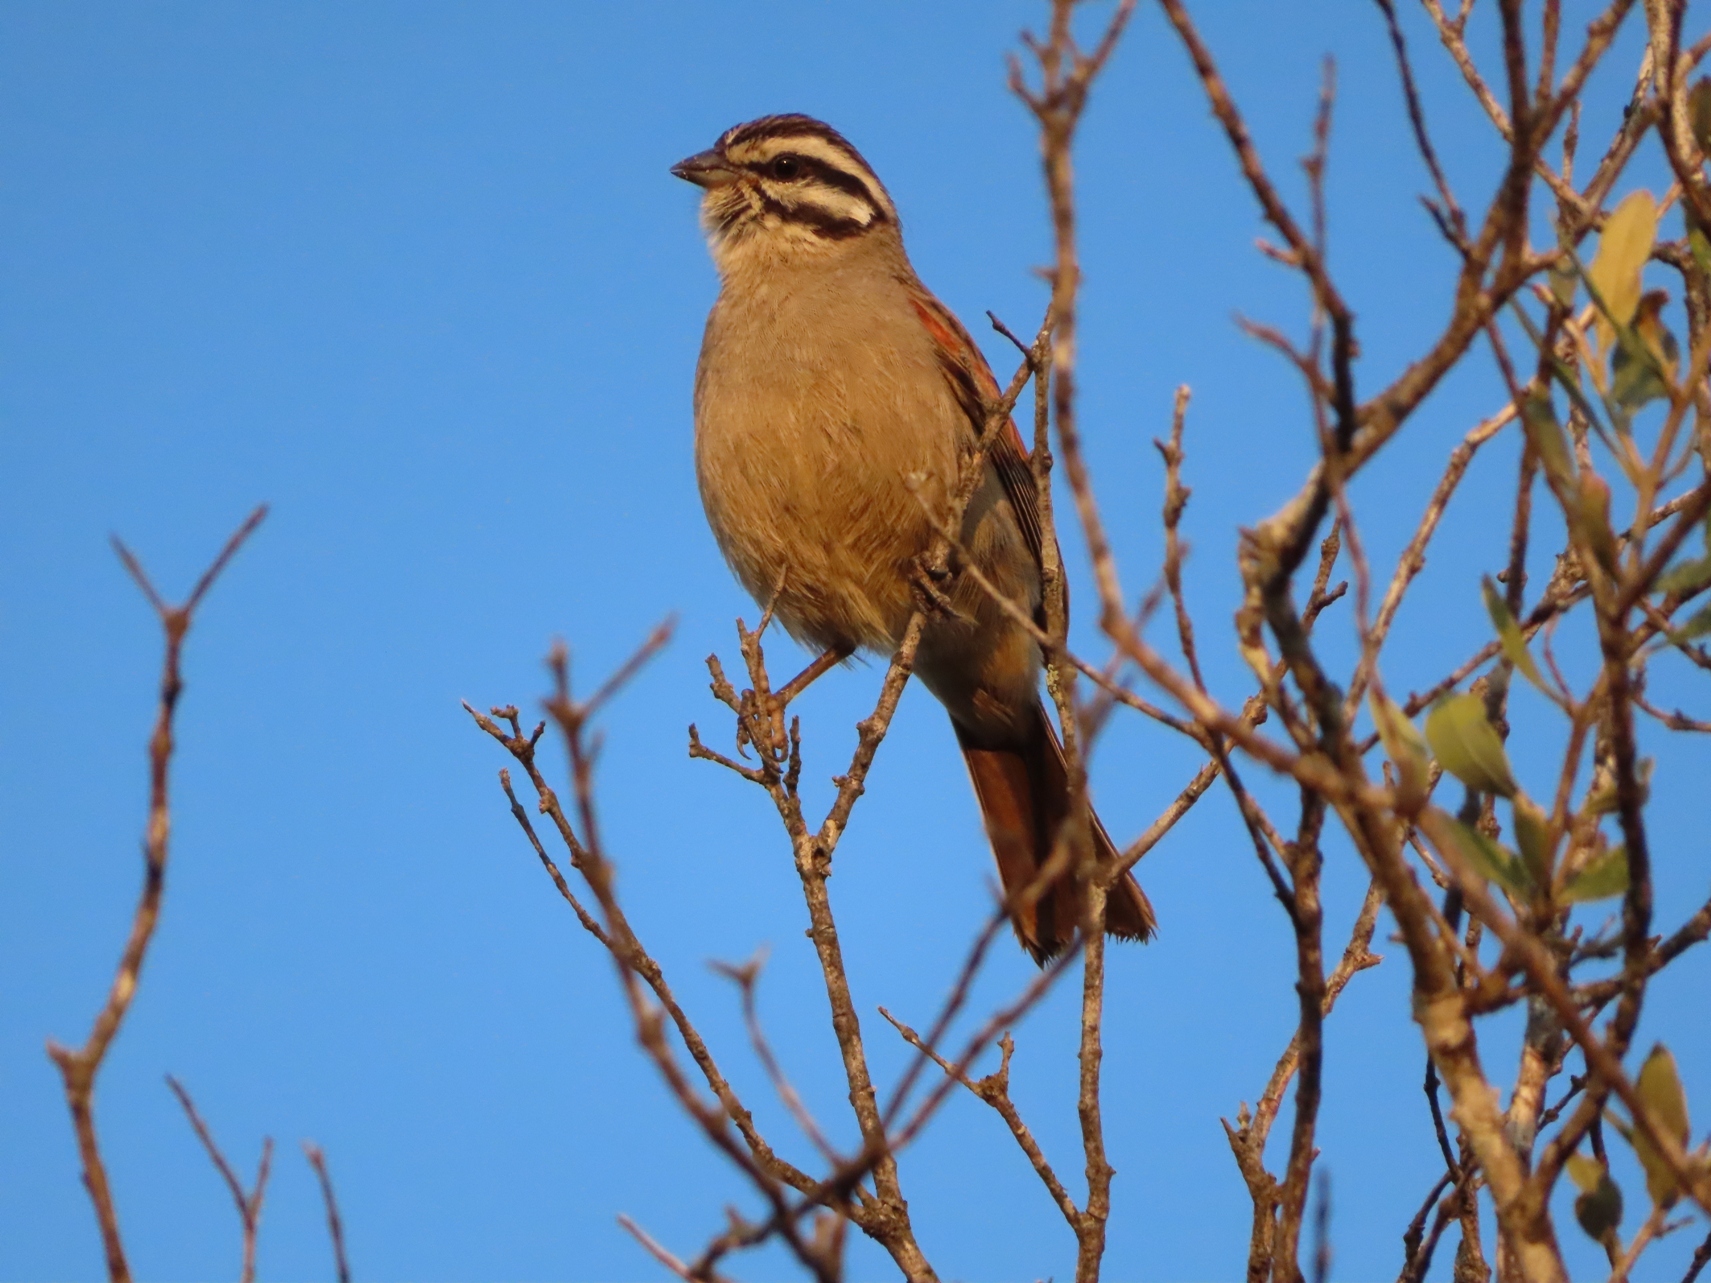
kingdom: Animalia
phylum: Chordata
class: Aves
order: Passeriformes
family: Emberizidae
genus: Emberiza
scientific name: Emberiza capensis
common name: Cape bunting
